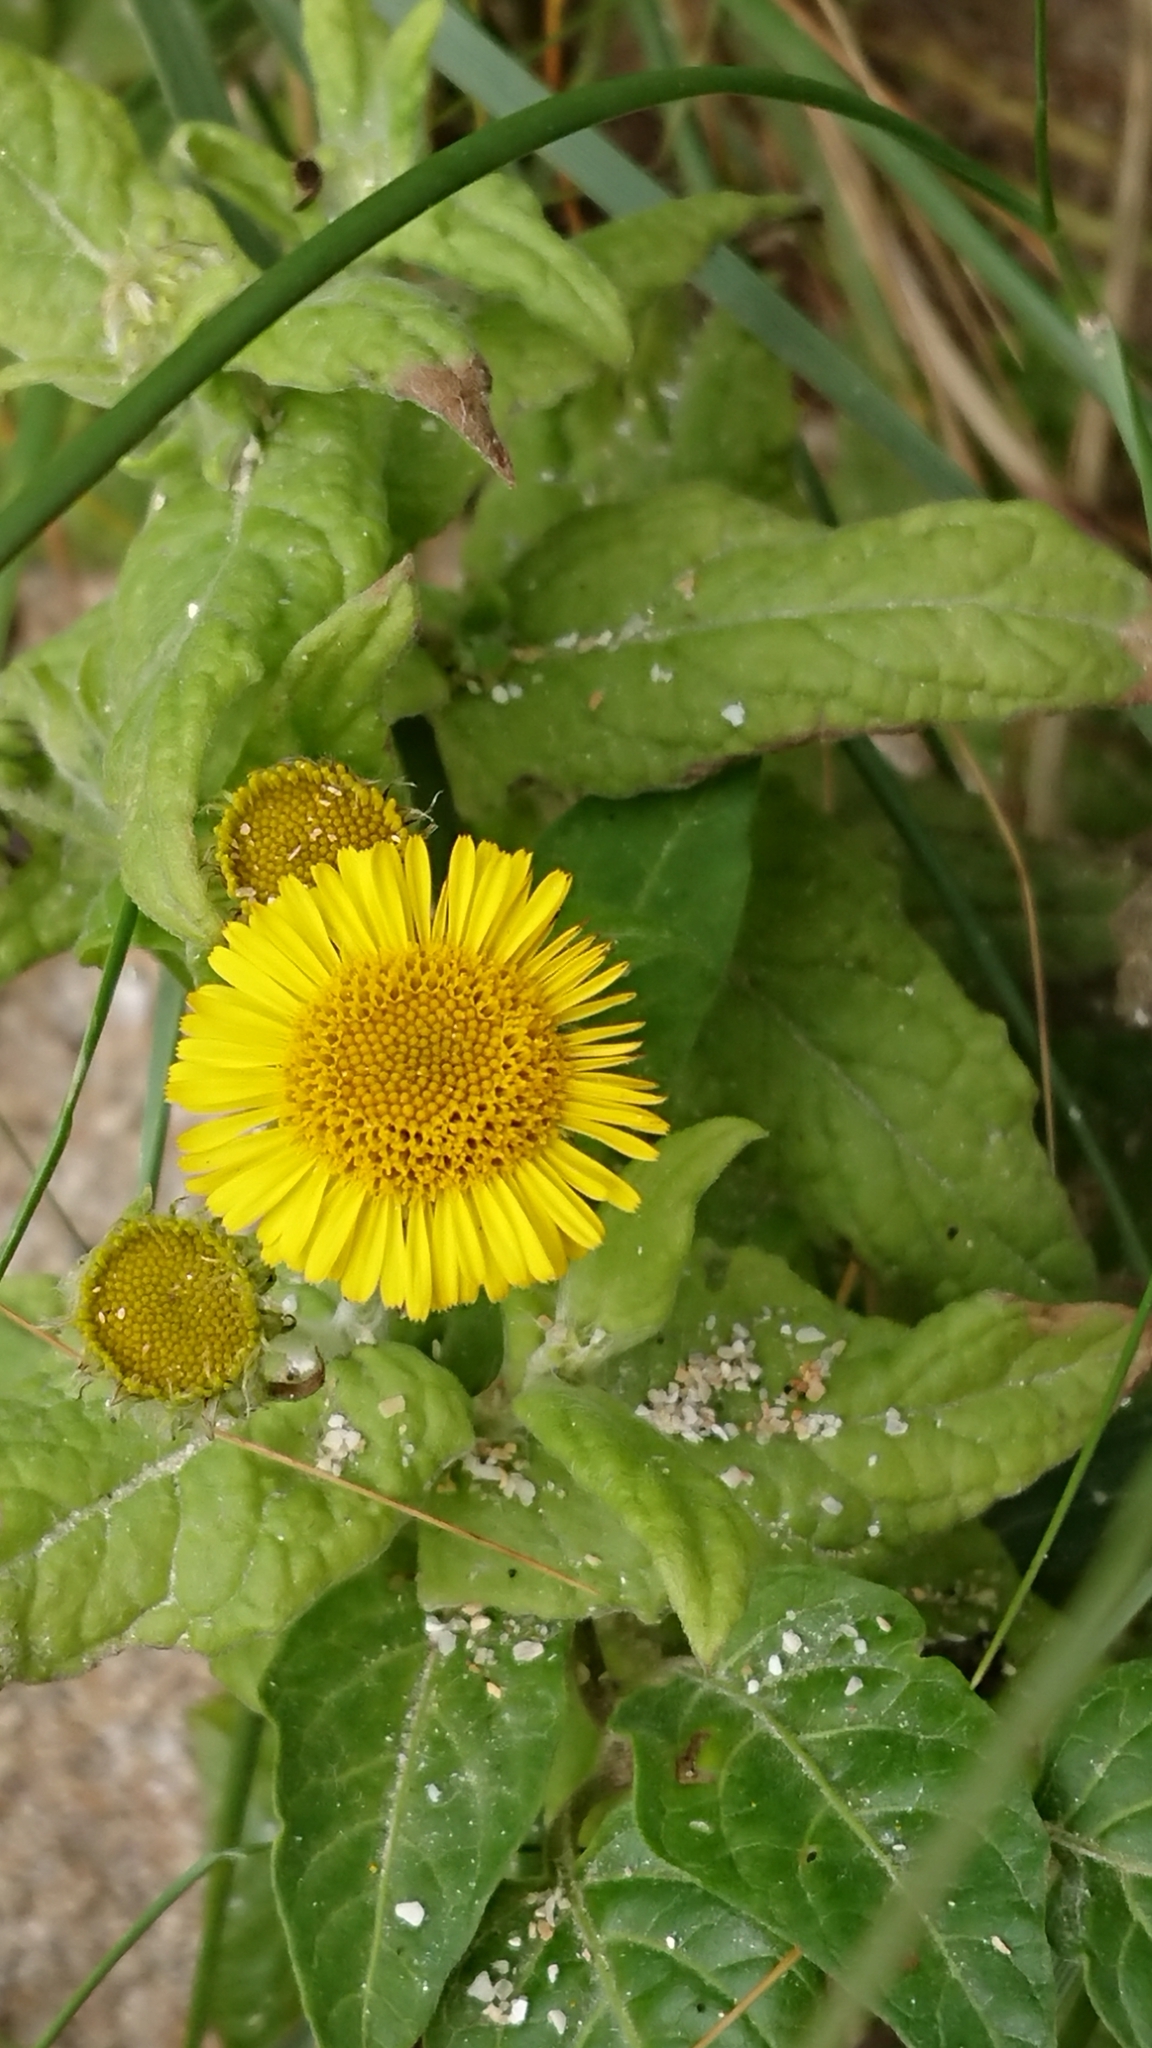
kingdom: Plantae
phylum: Tracheophyta
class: Magnoliopsida
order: Asterales
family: Asteraceae
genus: Pulicaria
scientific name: Pulicaria dysenterica
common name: Common fleabane
